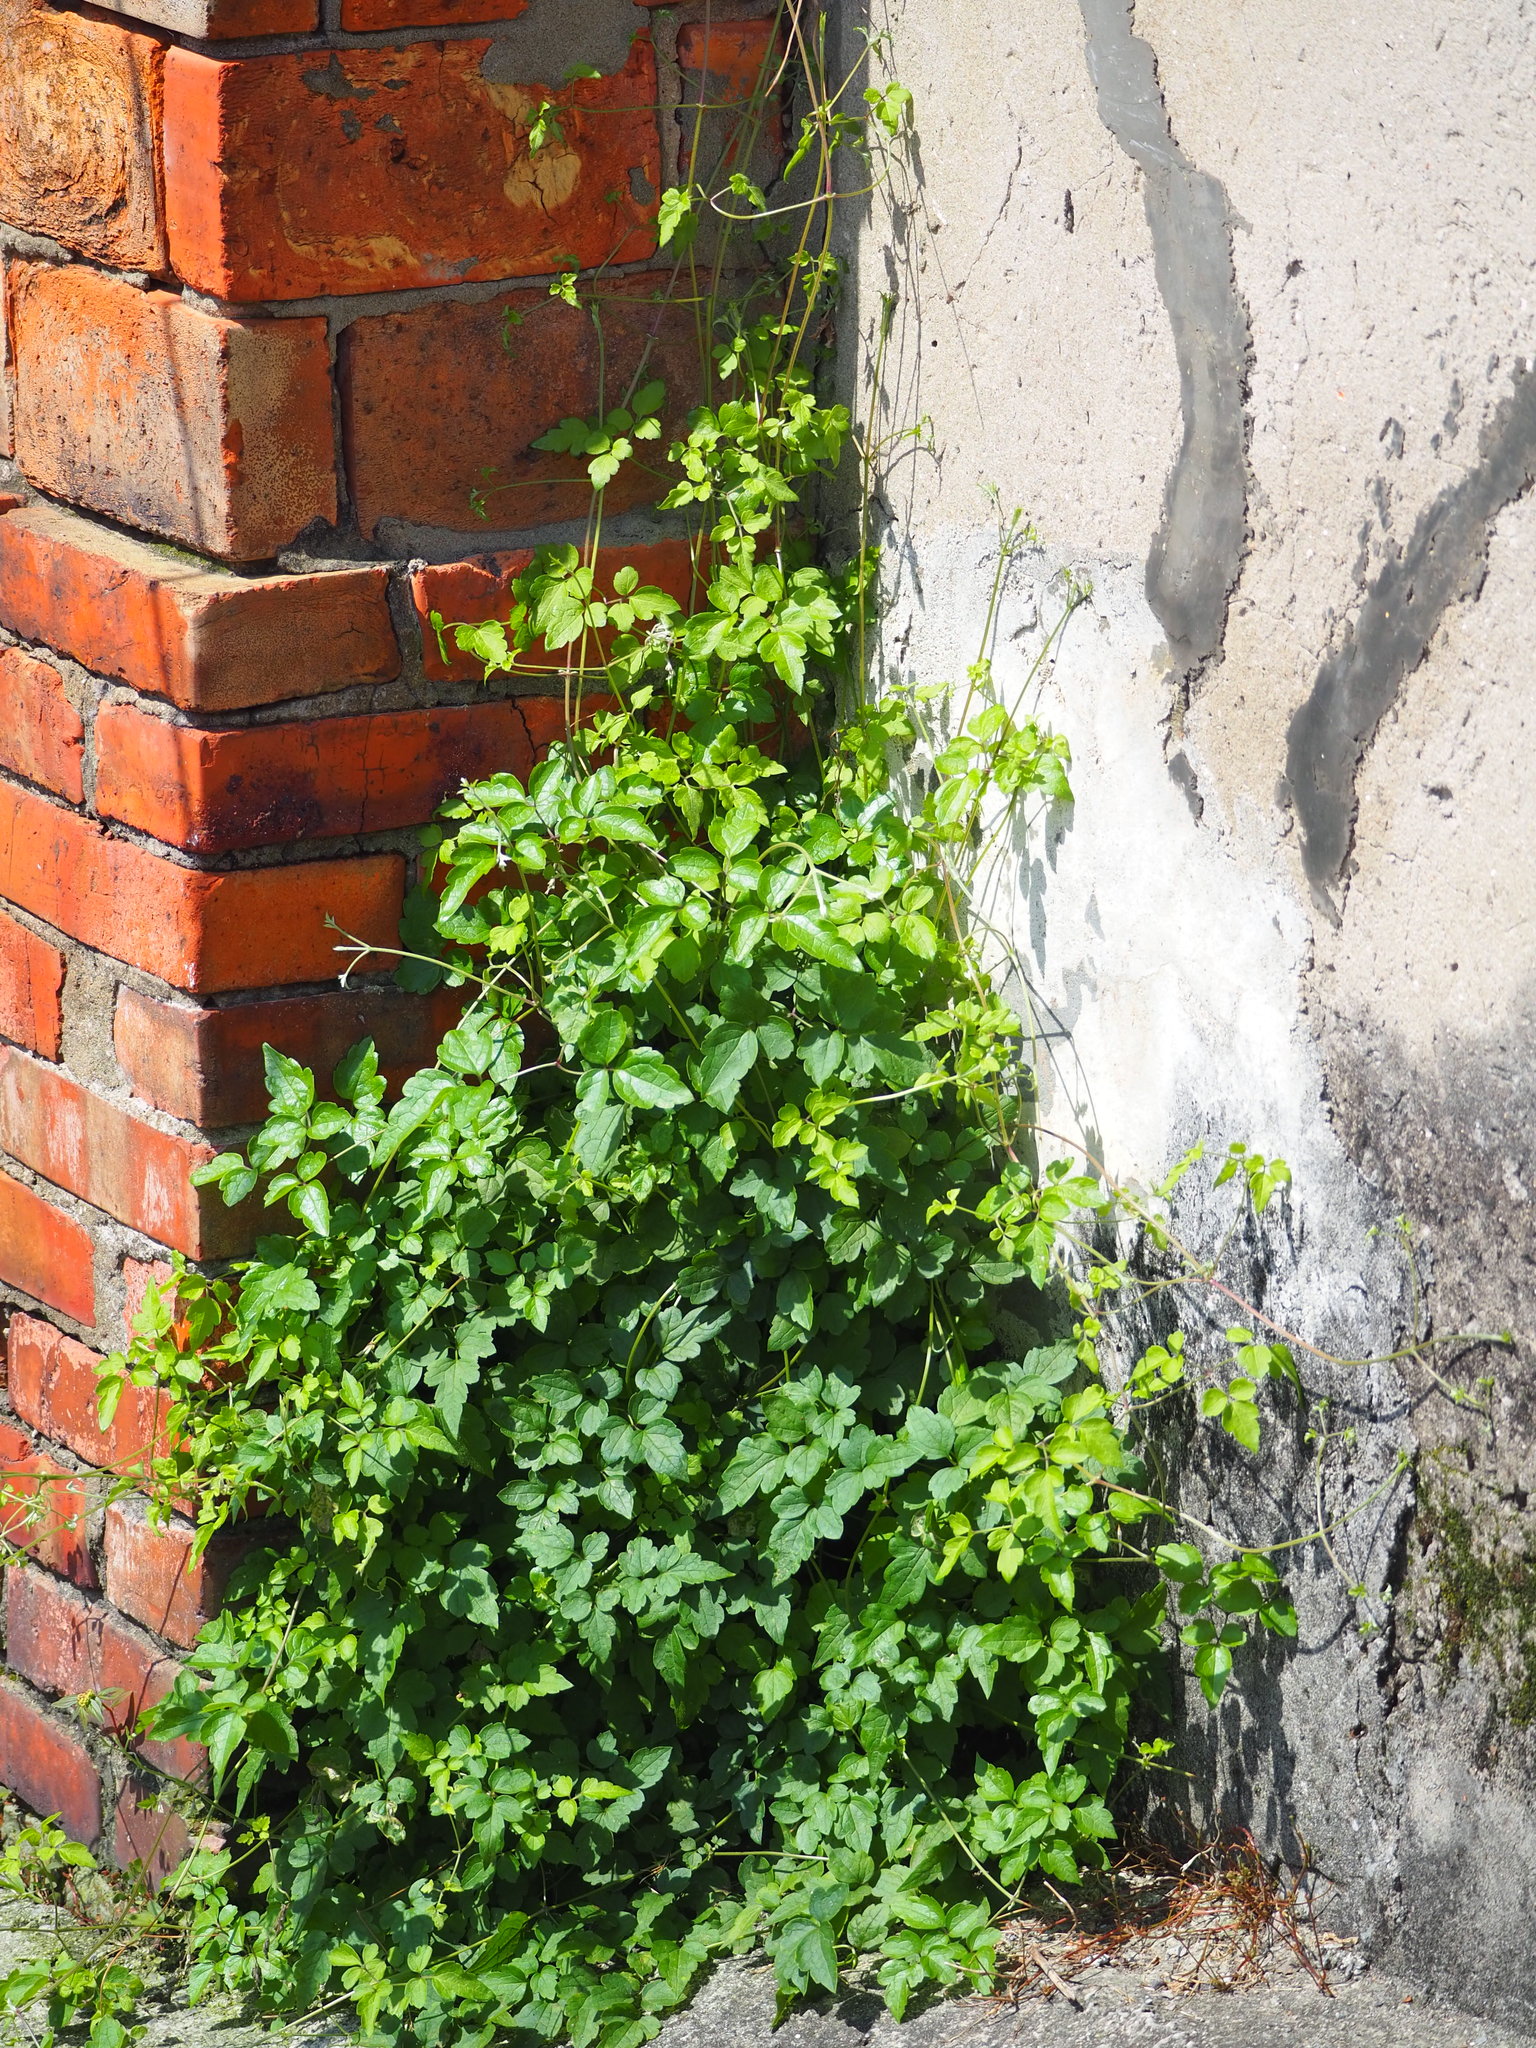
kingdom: Plantae
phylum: Tracheophyta
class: Magnoliopsida
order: Ranunculales
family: Ranunculaceae
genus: Clematis
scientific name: Clematis grata
